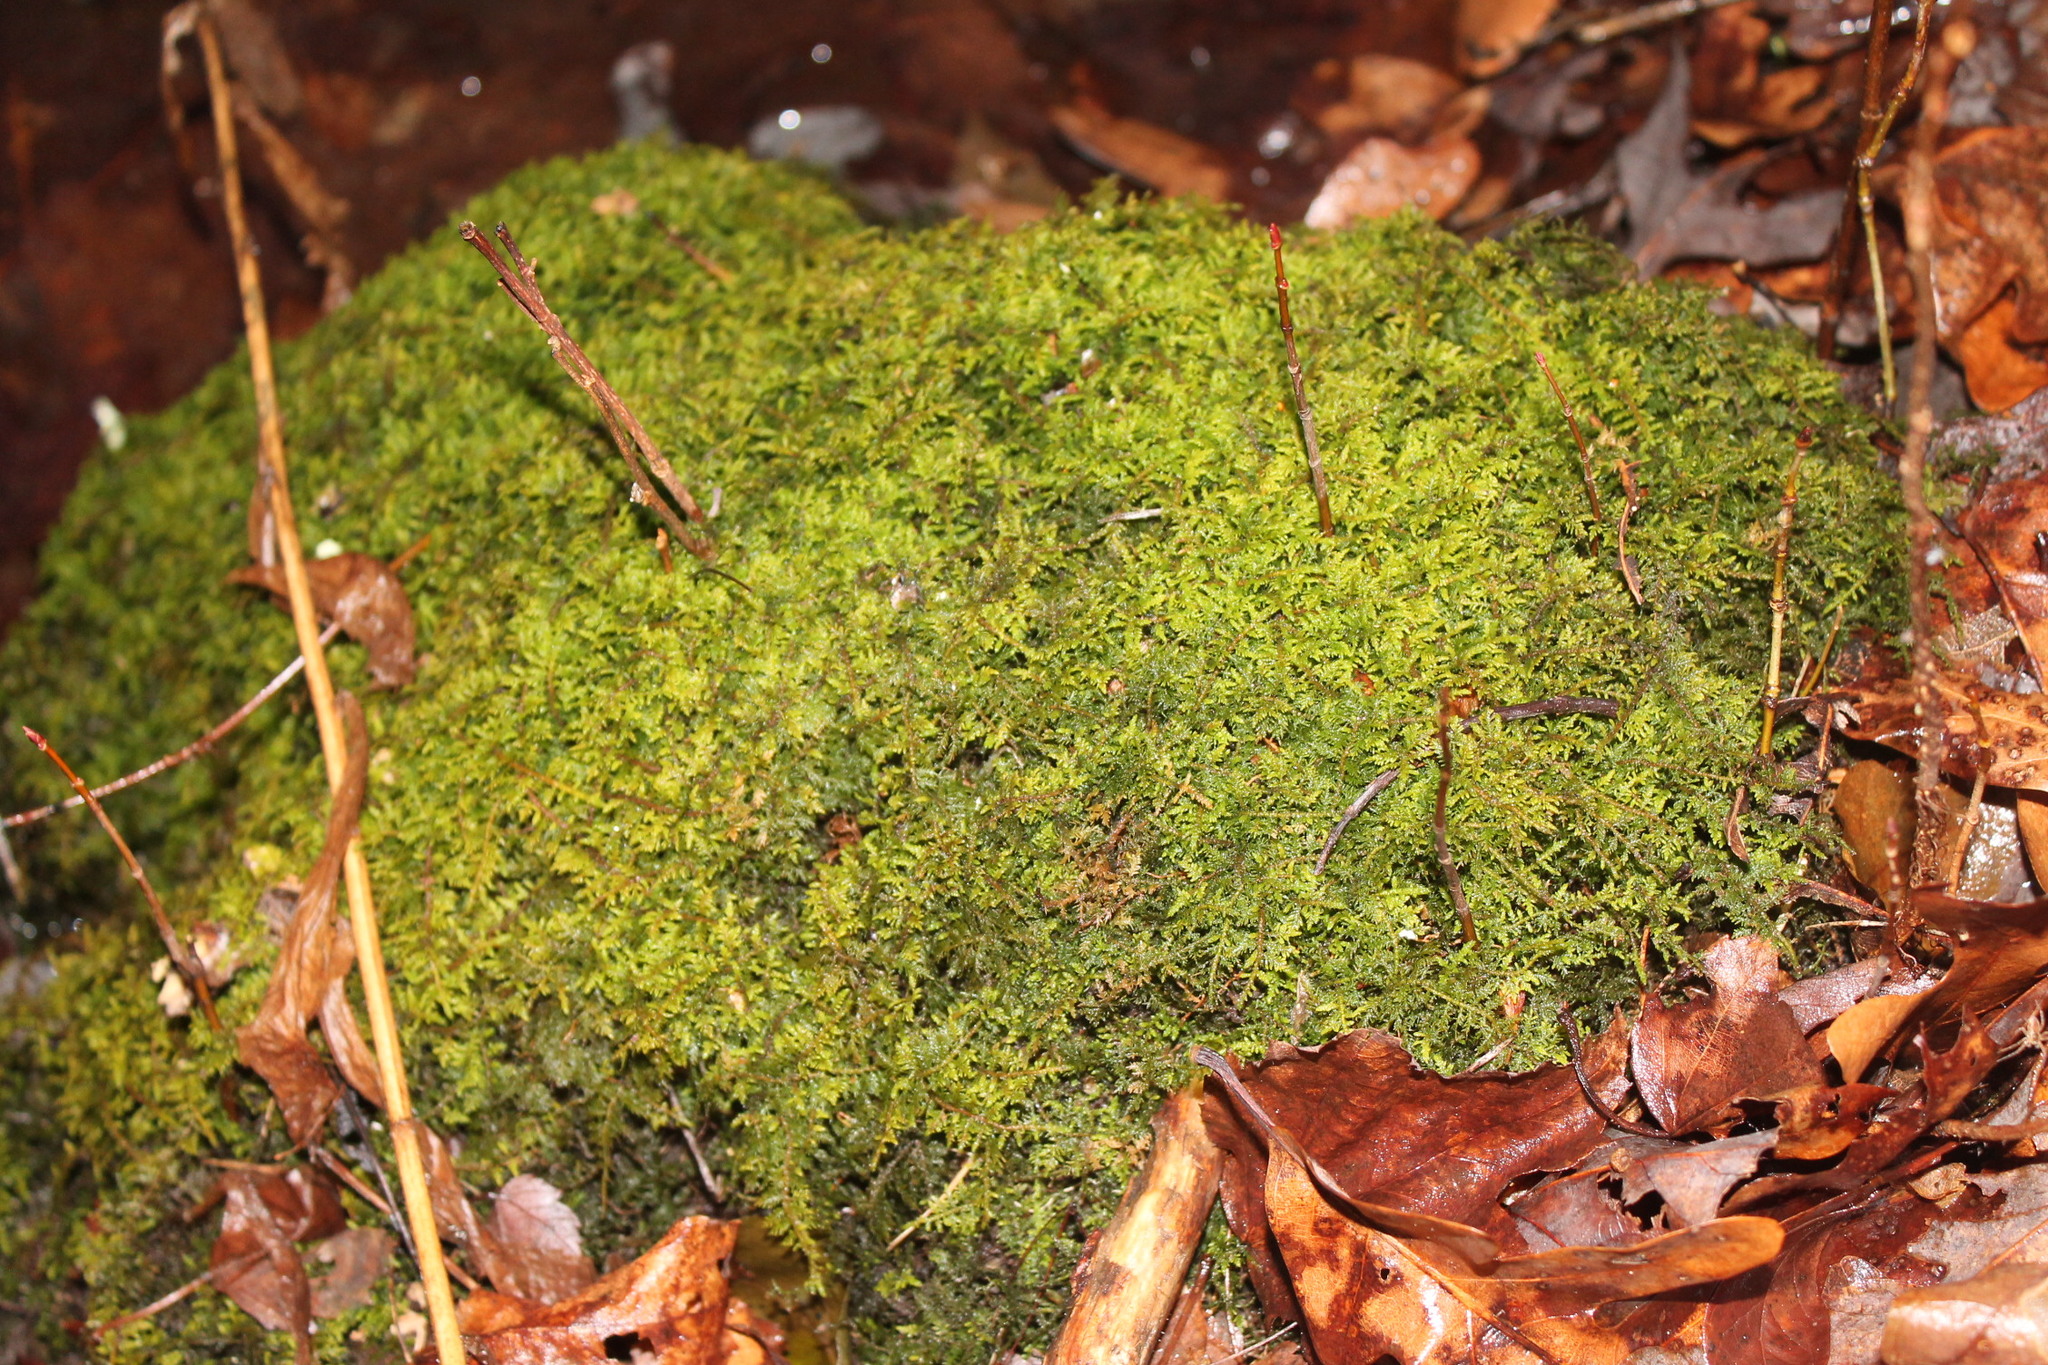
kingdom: Plantae
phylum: Bryophyta
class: Bryopsida
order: Hypnales
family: Thuidiaceae
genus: Thuidium
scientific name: Thuidium delicatulum
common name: Delicate fern moss
